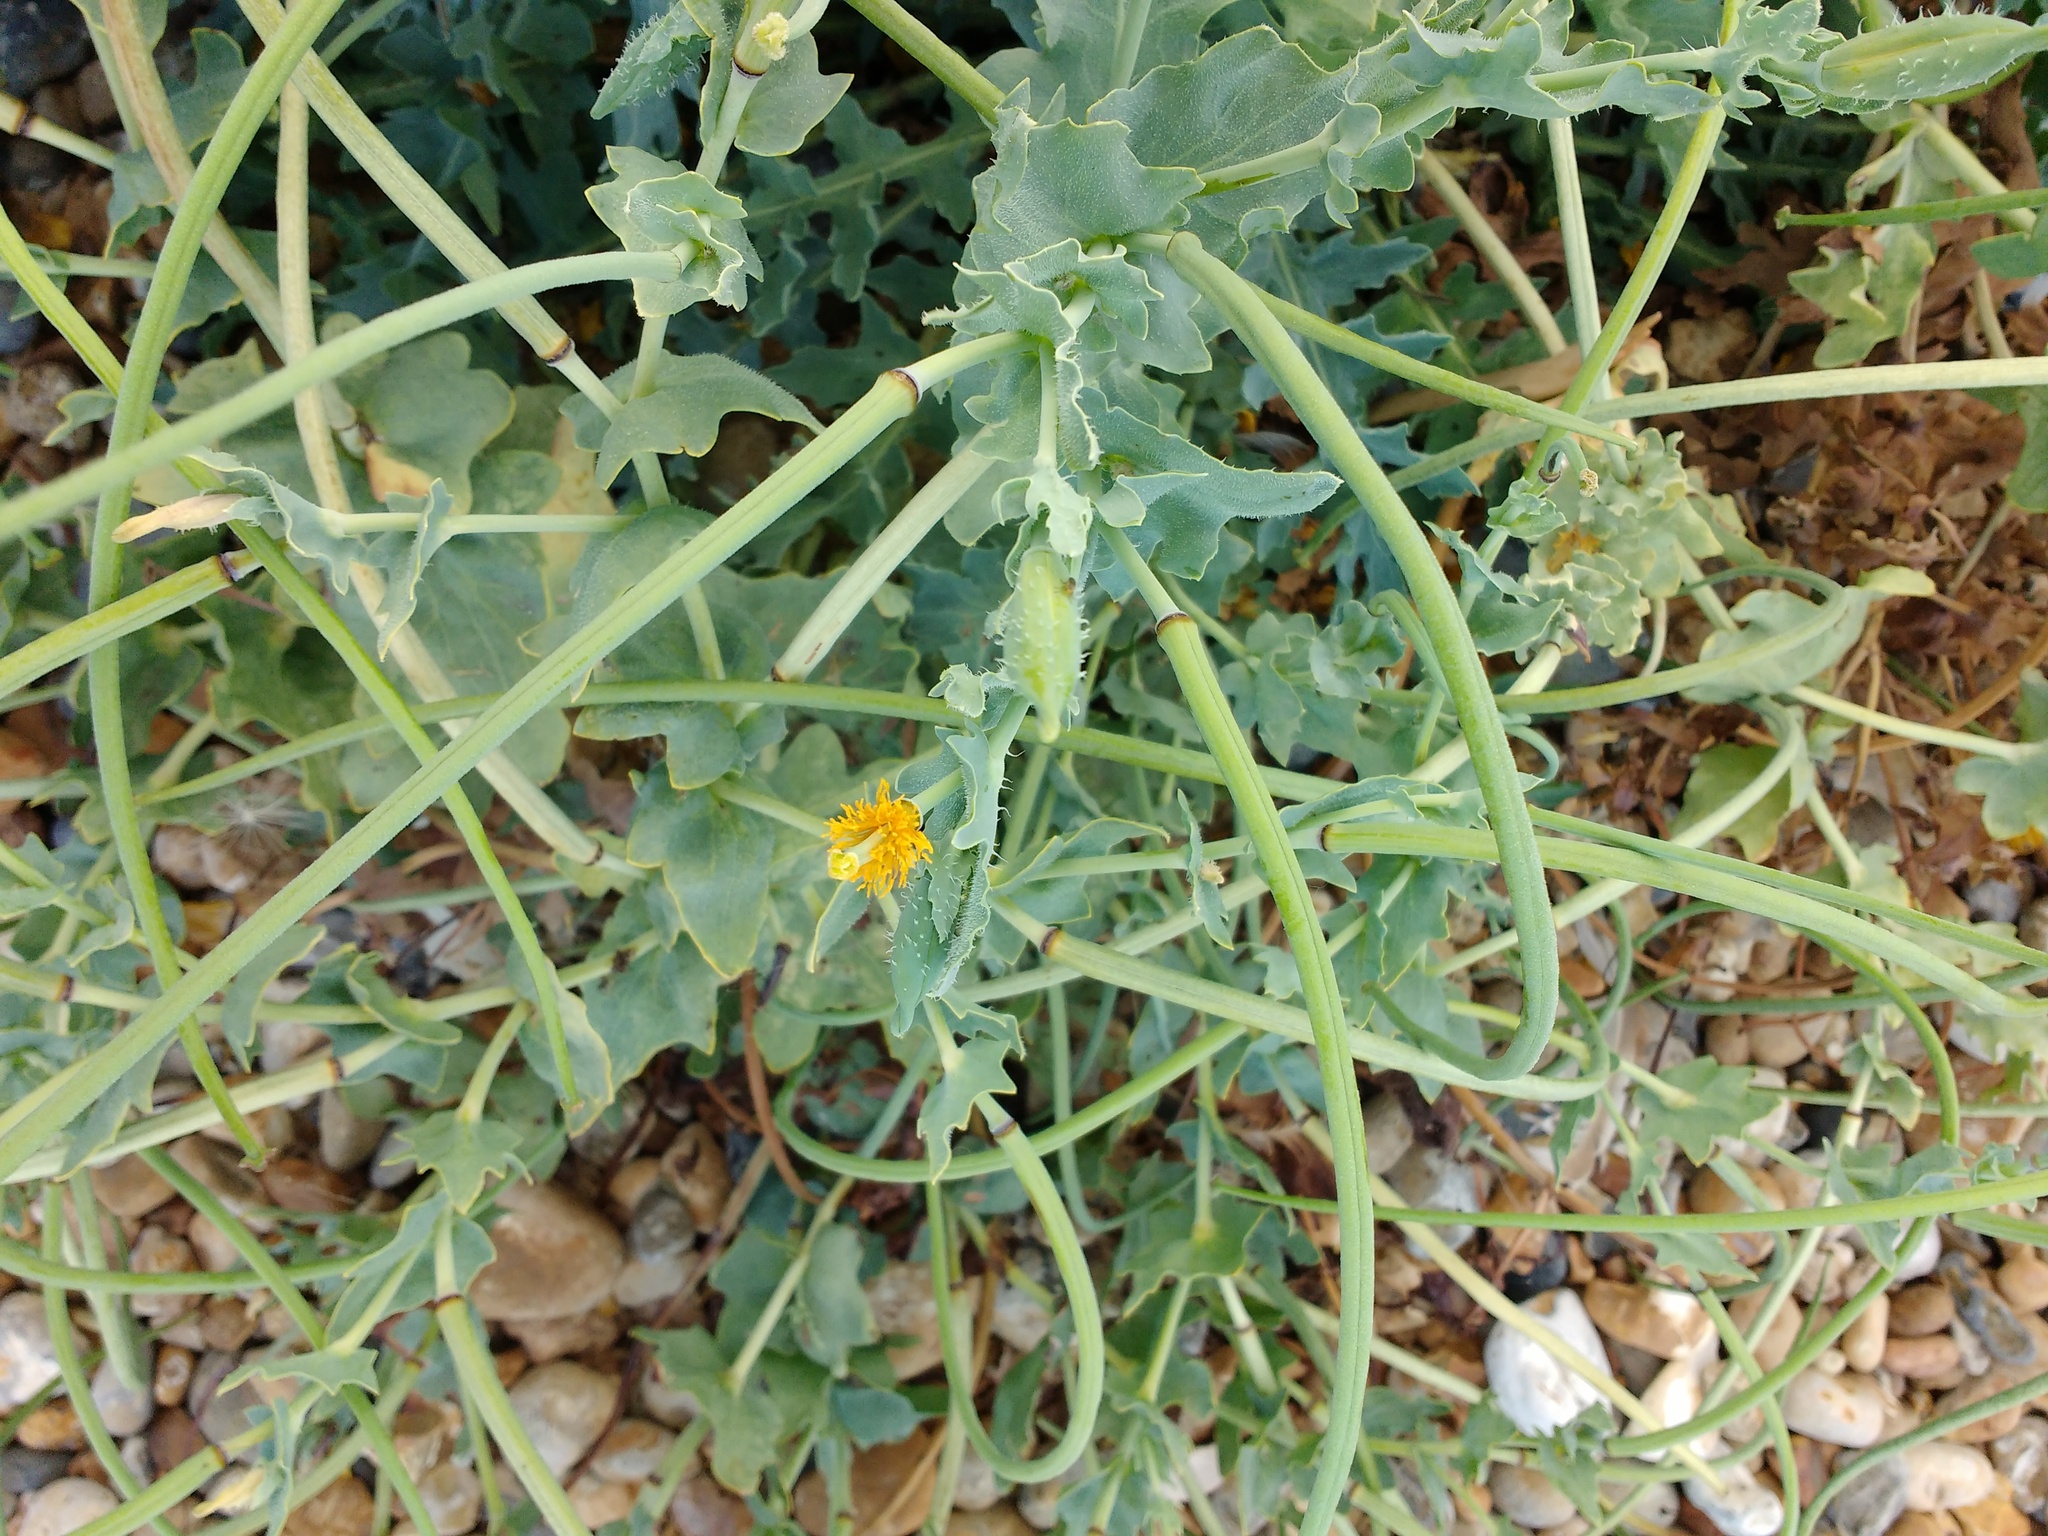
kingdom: Plantae
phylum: Tracheophyta
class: Magnoliopsida
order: Ranunculales
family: Papaveraceae
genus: Glaucium
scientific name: Glaucium flavum
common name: Yellow horned-poppy
